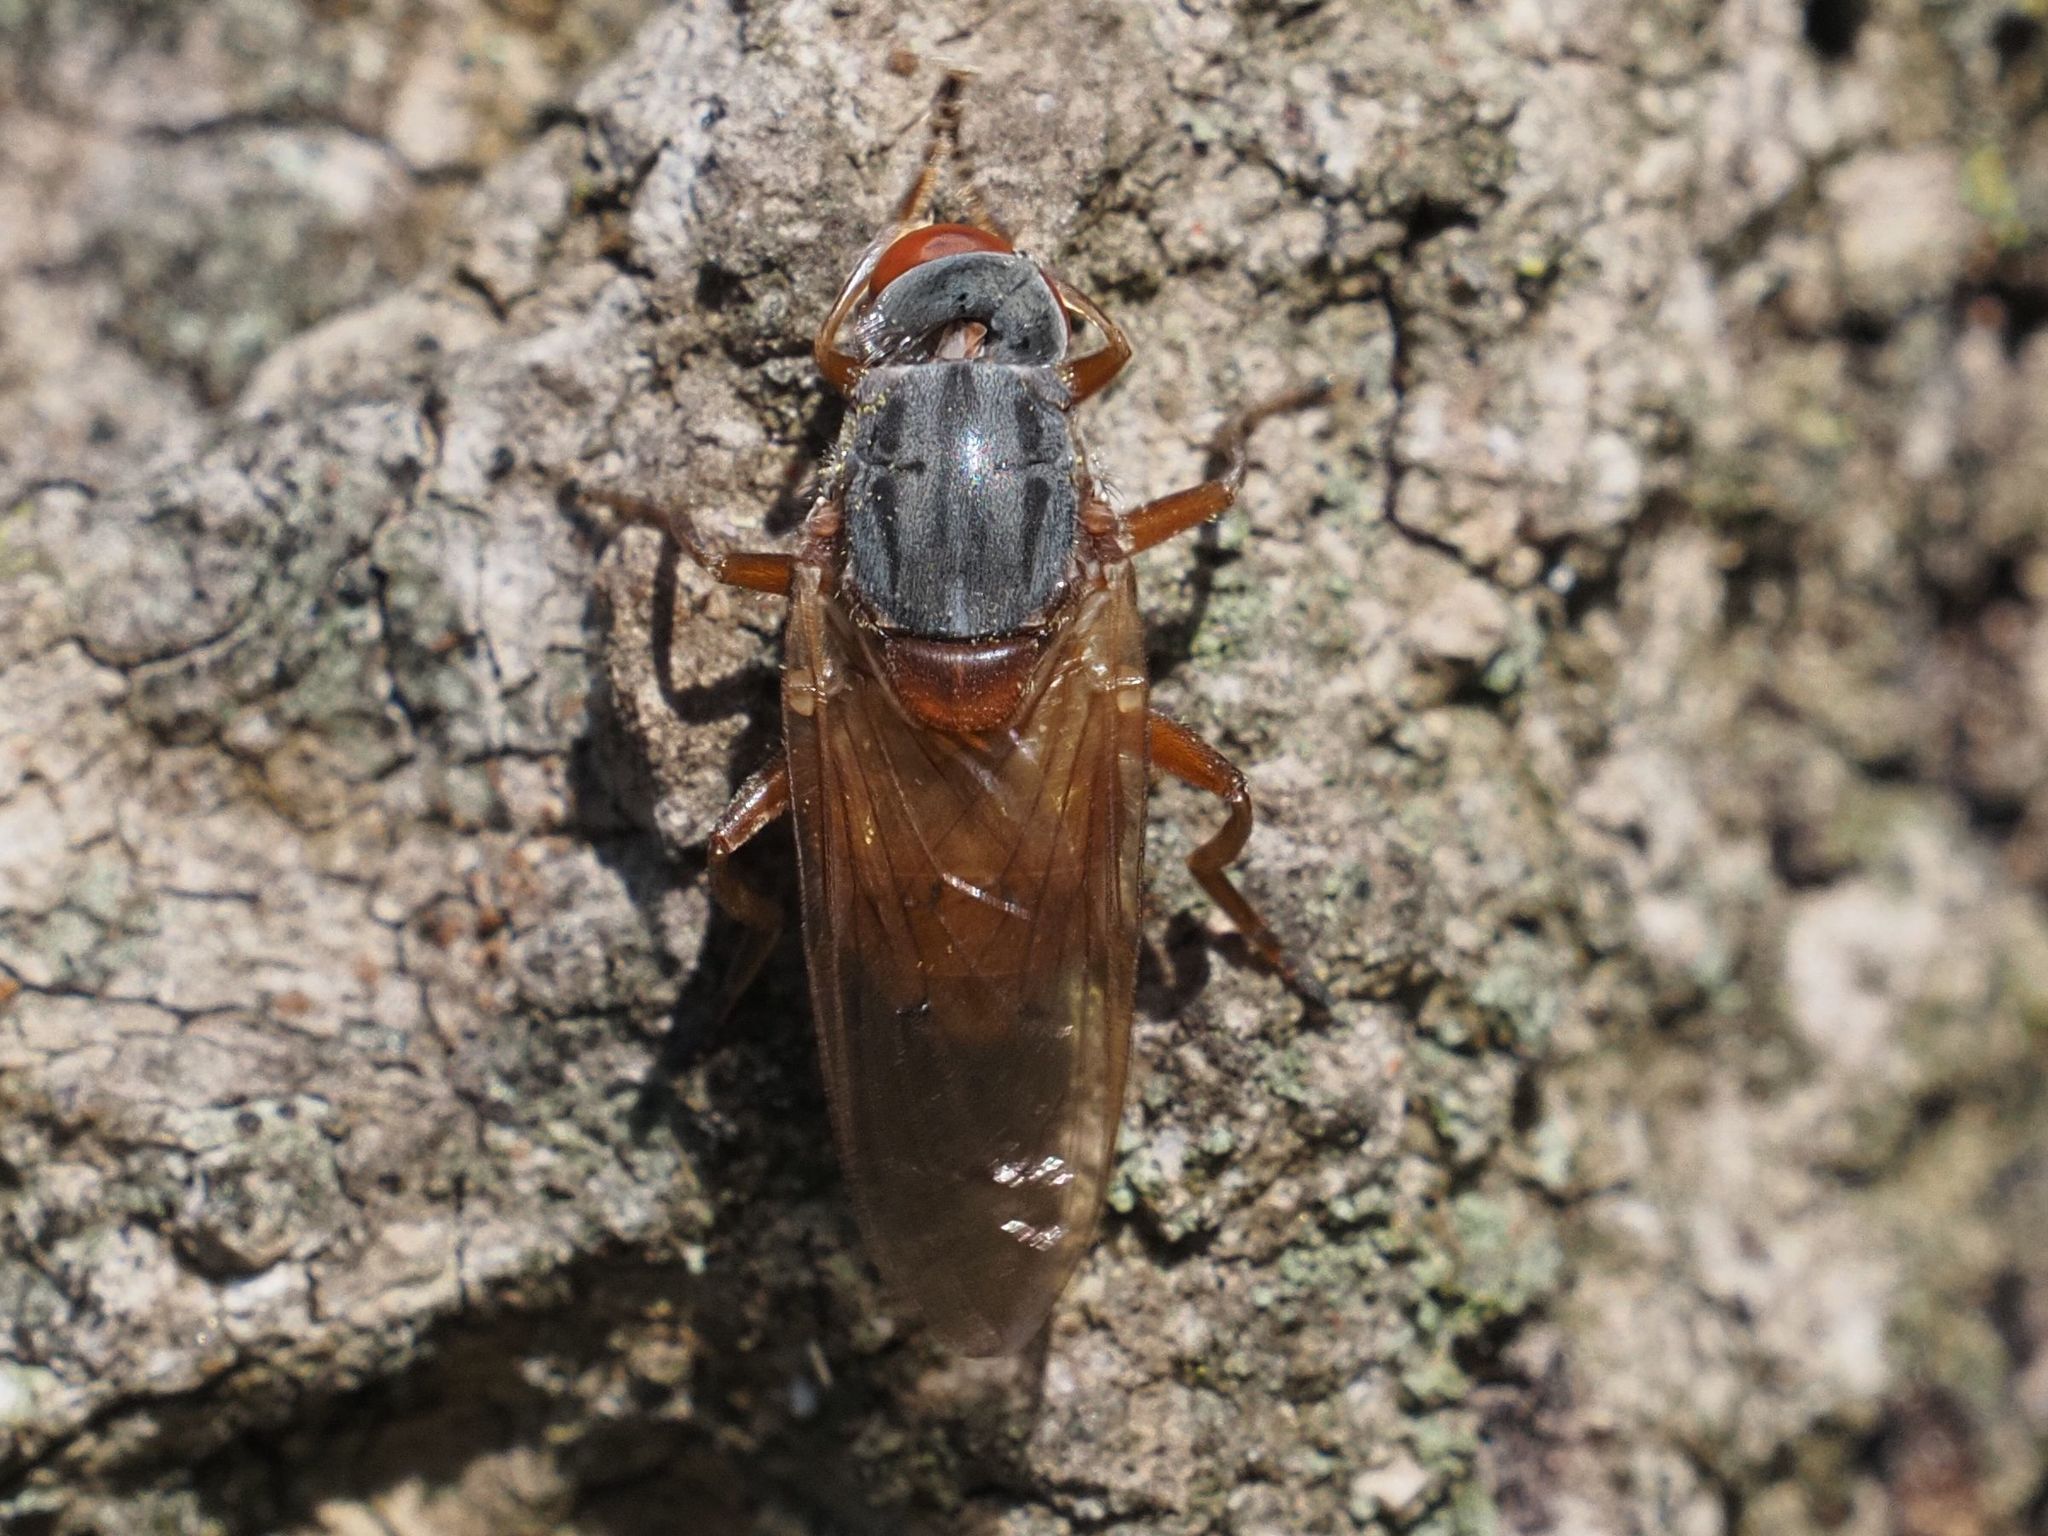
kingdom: Animalia
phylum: Arthropoda
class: Insecta
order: Diptera
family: Syrphidae
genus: Brachyopa
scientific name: Brachyopa maculipennis
